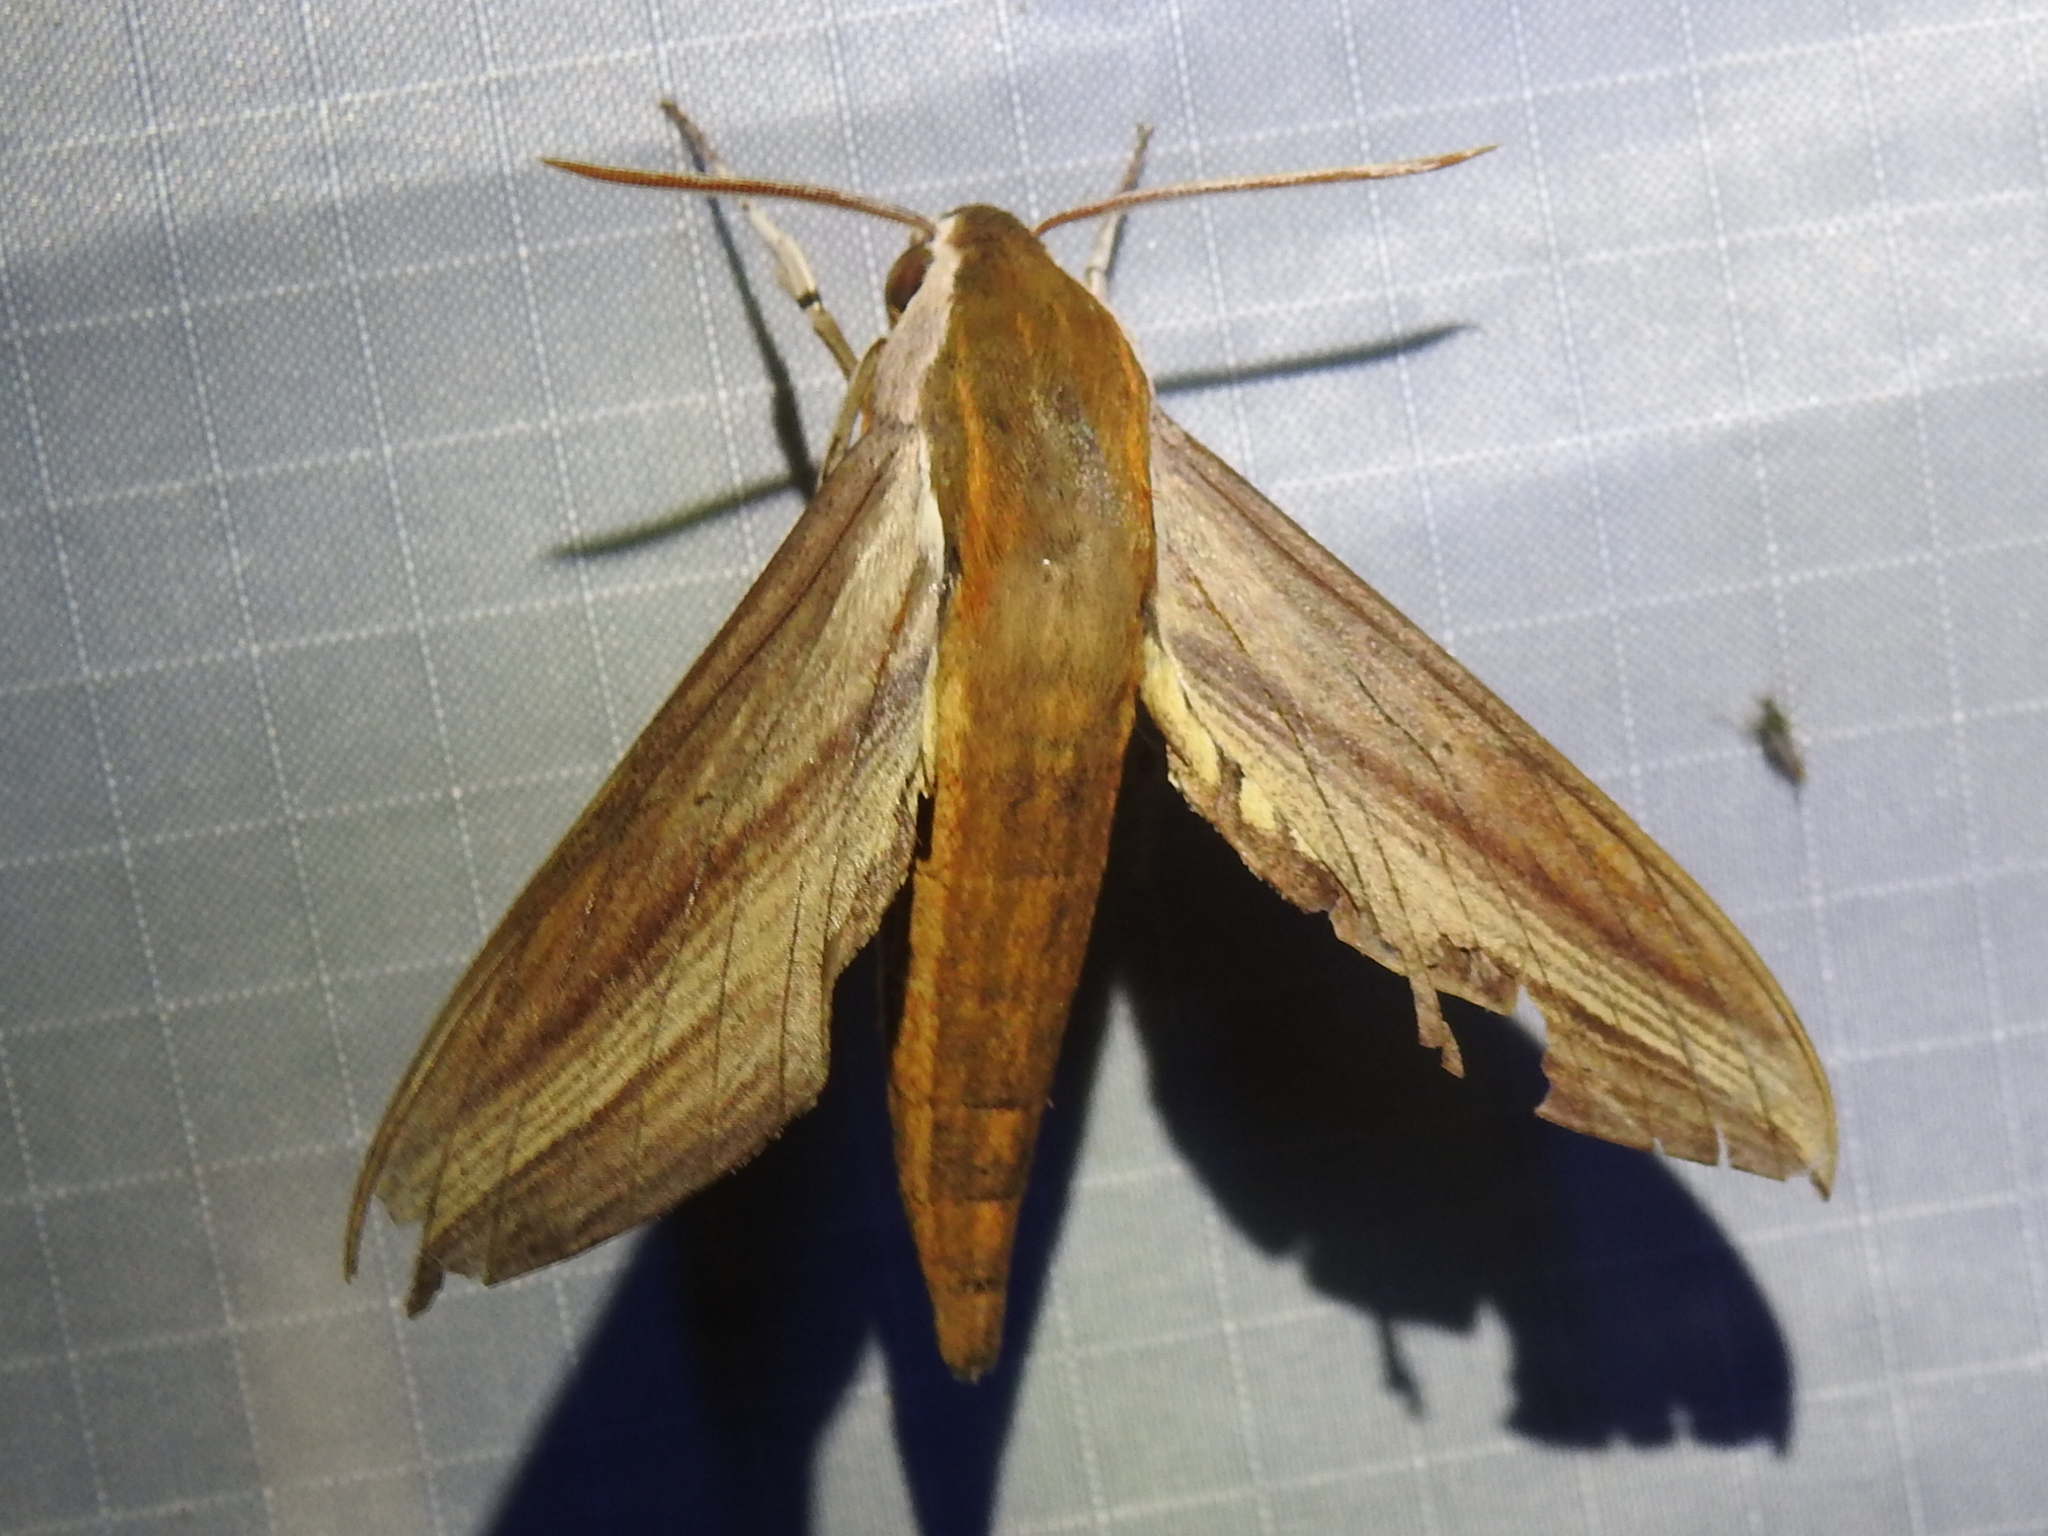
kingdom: Animalia
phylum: Arthropoda
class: Insecta
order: Lepidoptera
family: Sphingidae
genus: Xylophanes
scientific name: Xylophanes tersa
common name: Tersa sphinx
